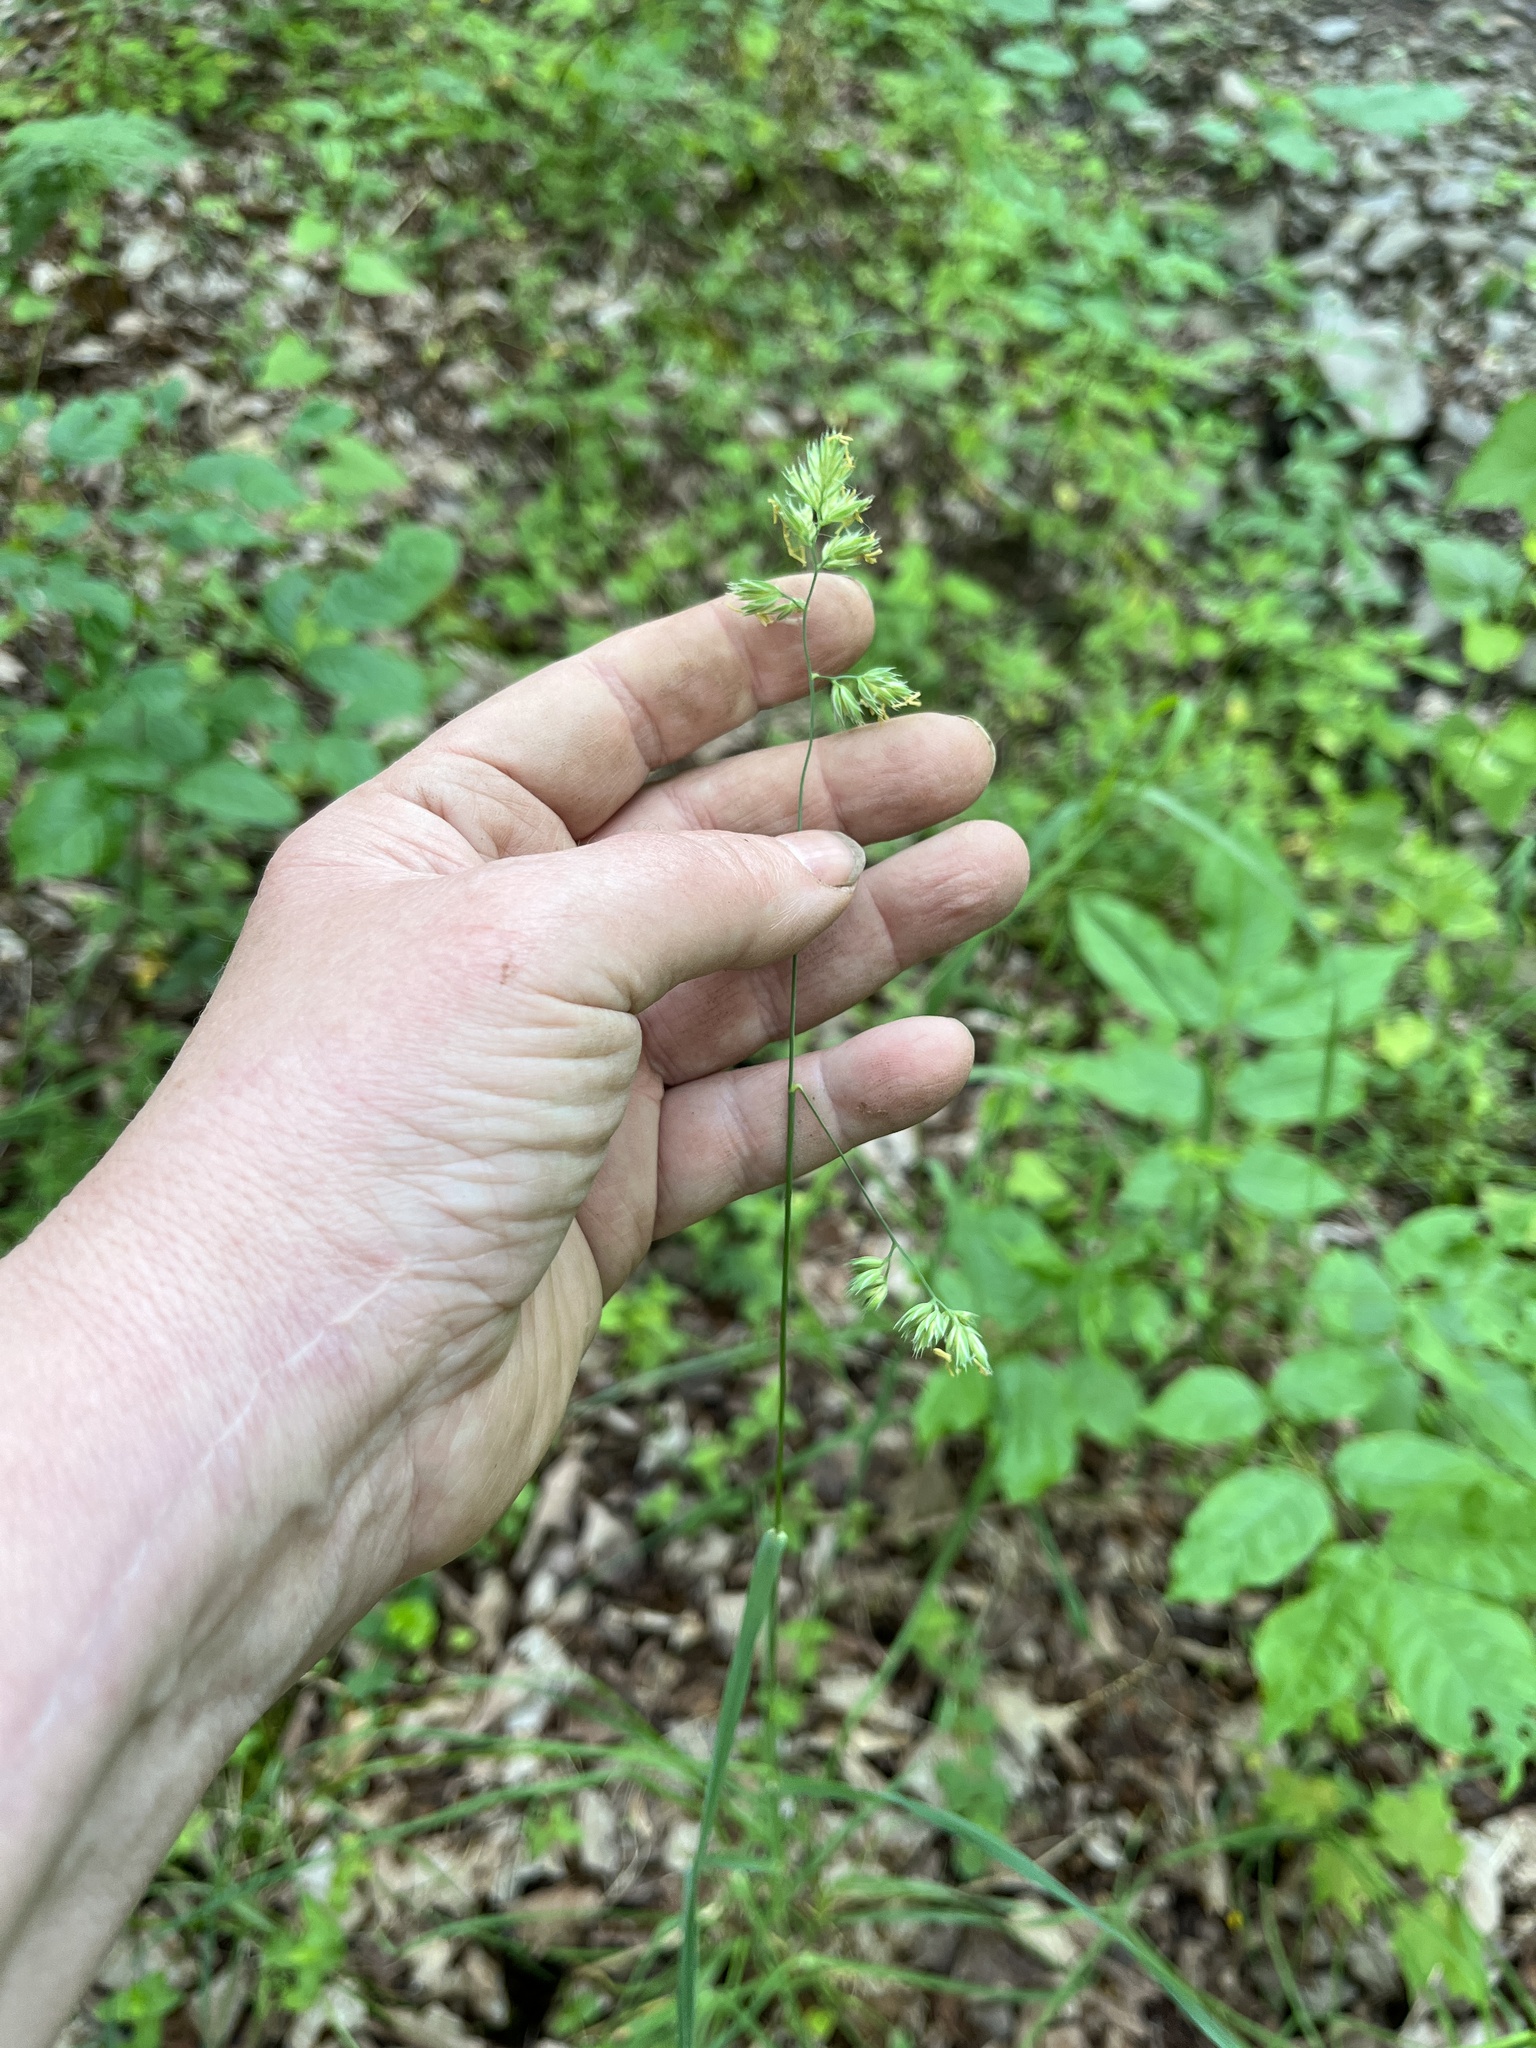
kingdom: Plantae
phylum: Tracheophyta
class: Liliopsida
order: Poales
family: Poaceae
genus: Dactylis
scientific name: Dactylis glomerata
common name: Orchardgrass
